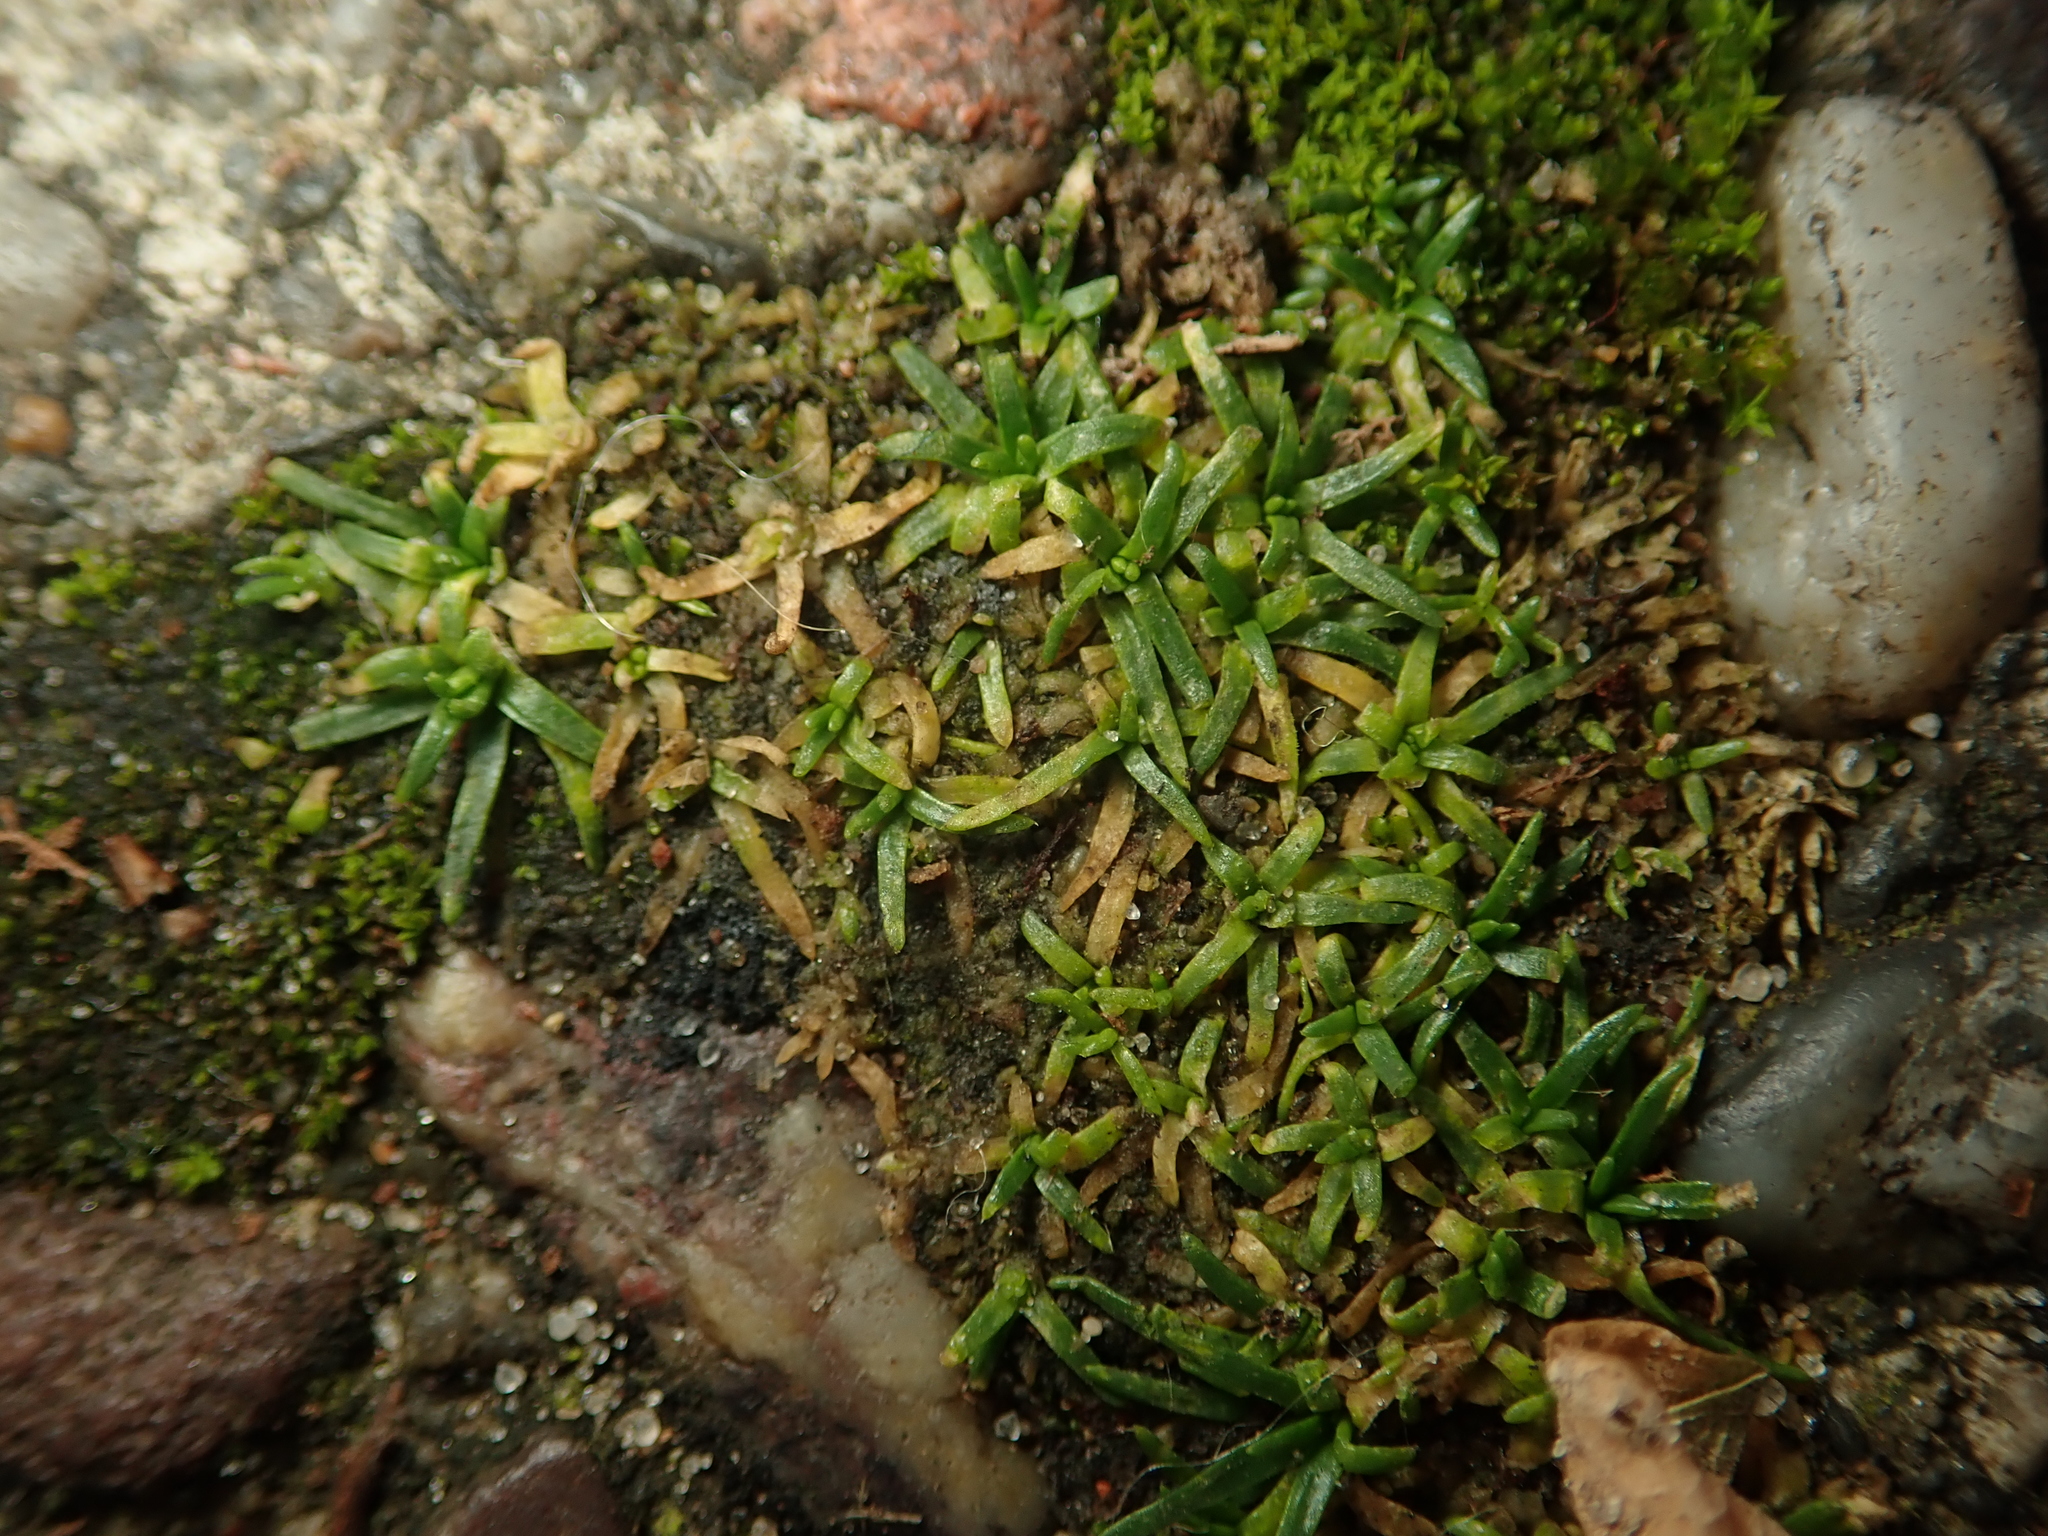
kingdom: Plantae
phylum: Tracheophyta
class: Magnoliopsida
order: Caryophyllales
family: Caryophyllaceae
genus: Sagina
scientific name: Sagina procumbens
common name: Procumbent pearlwort
